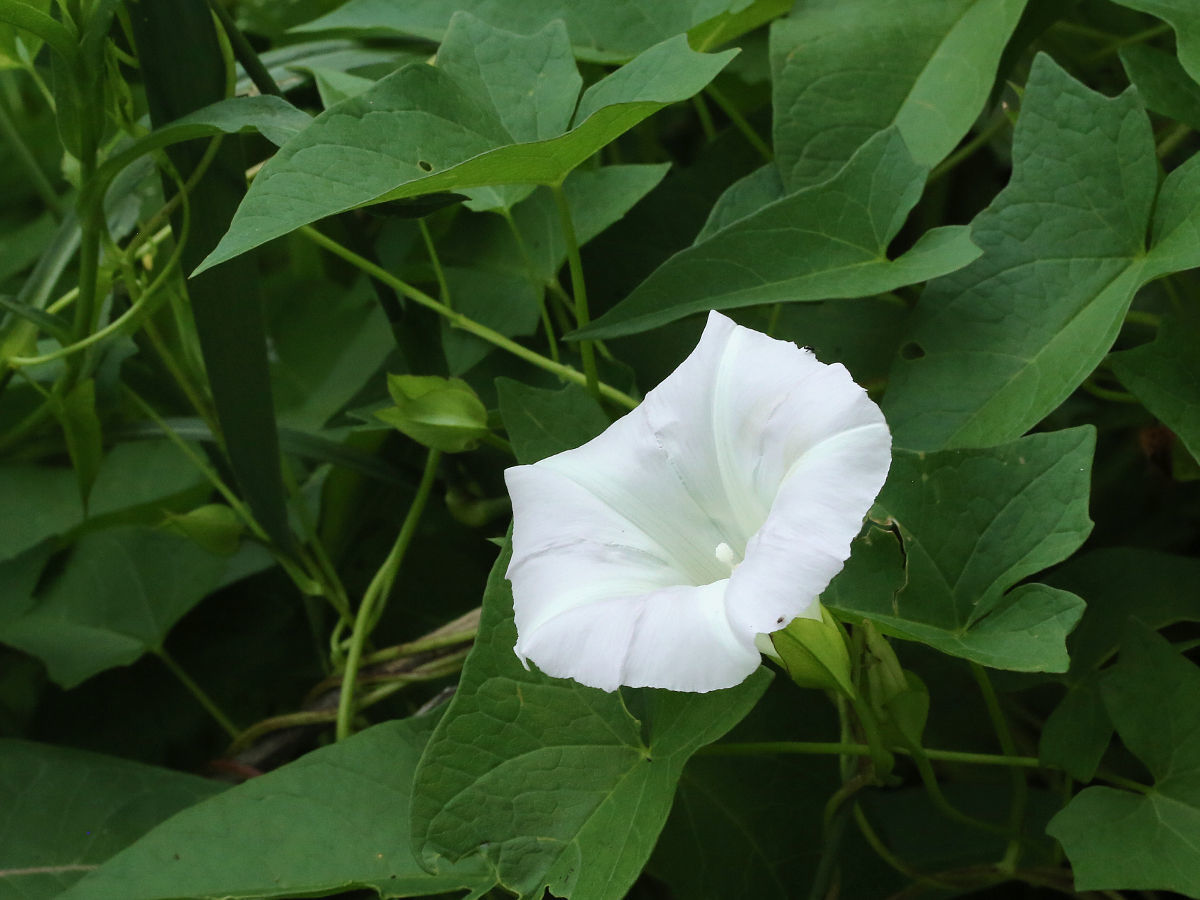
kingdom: Plantae
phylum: Tracheophyta
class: Magnoliopsida
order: Solanales
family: Convolvulaceae
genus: Calystegia
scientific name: Calystegia sepium
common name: Hedge bindweed
